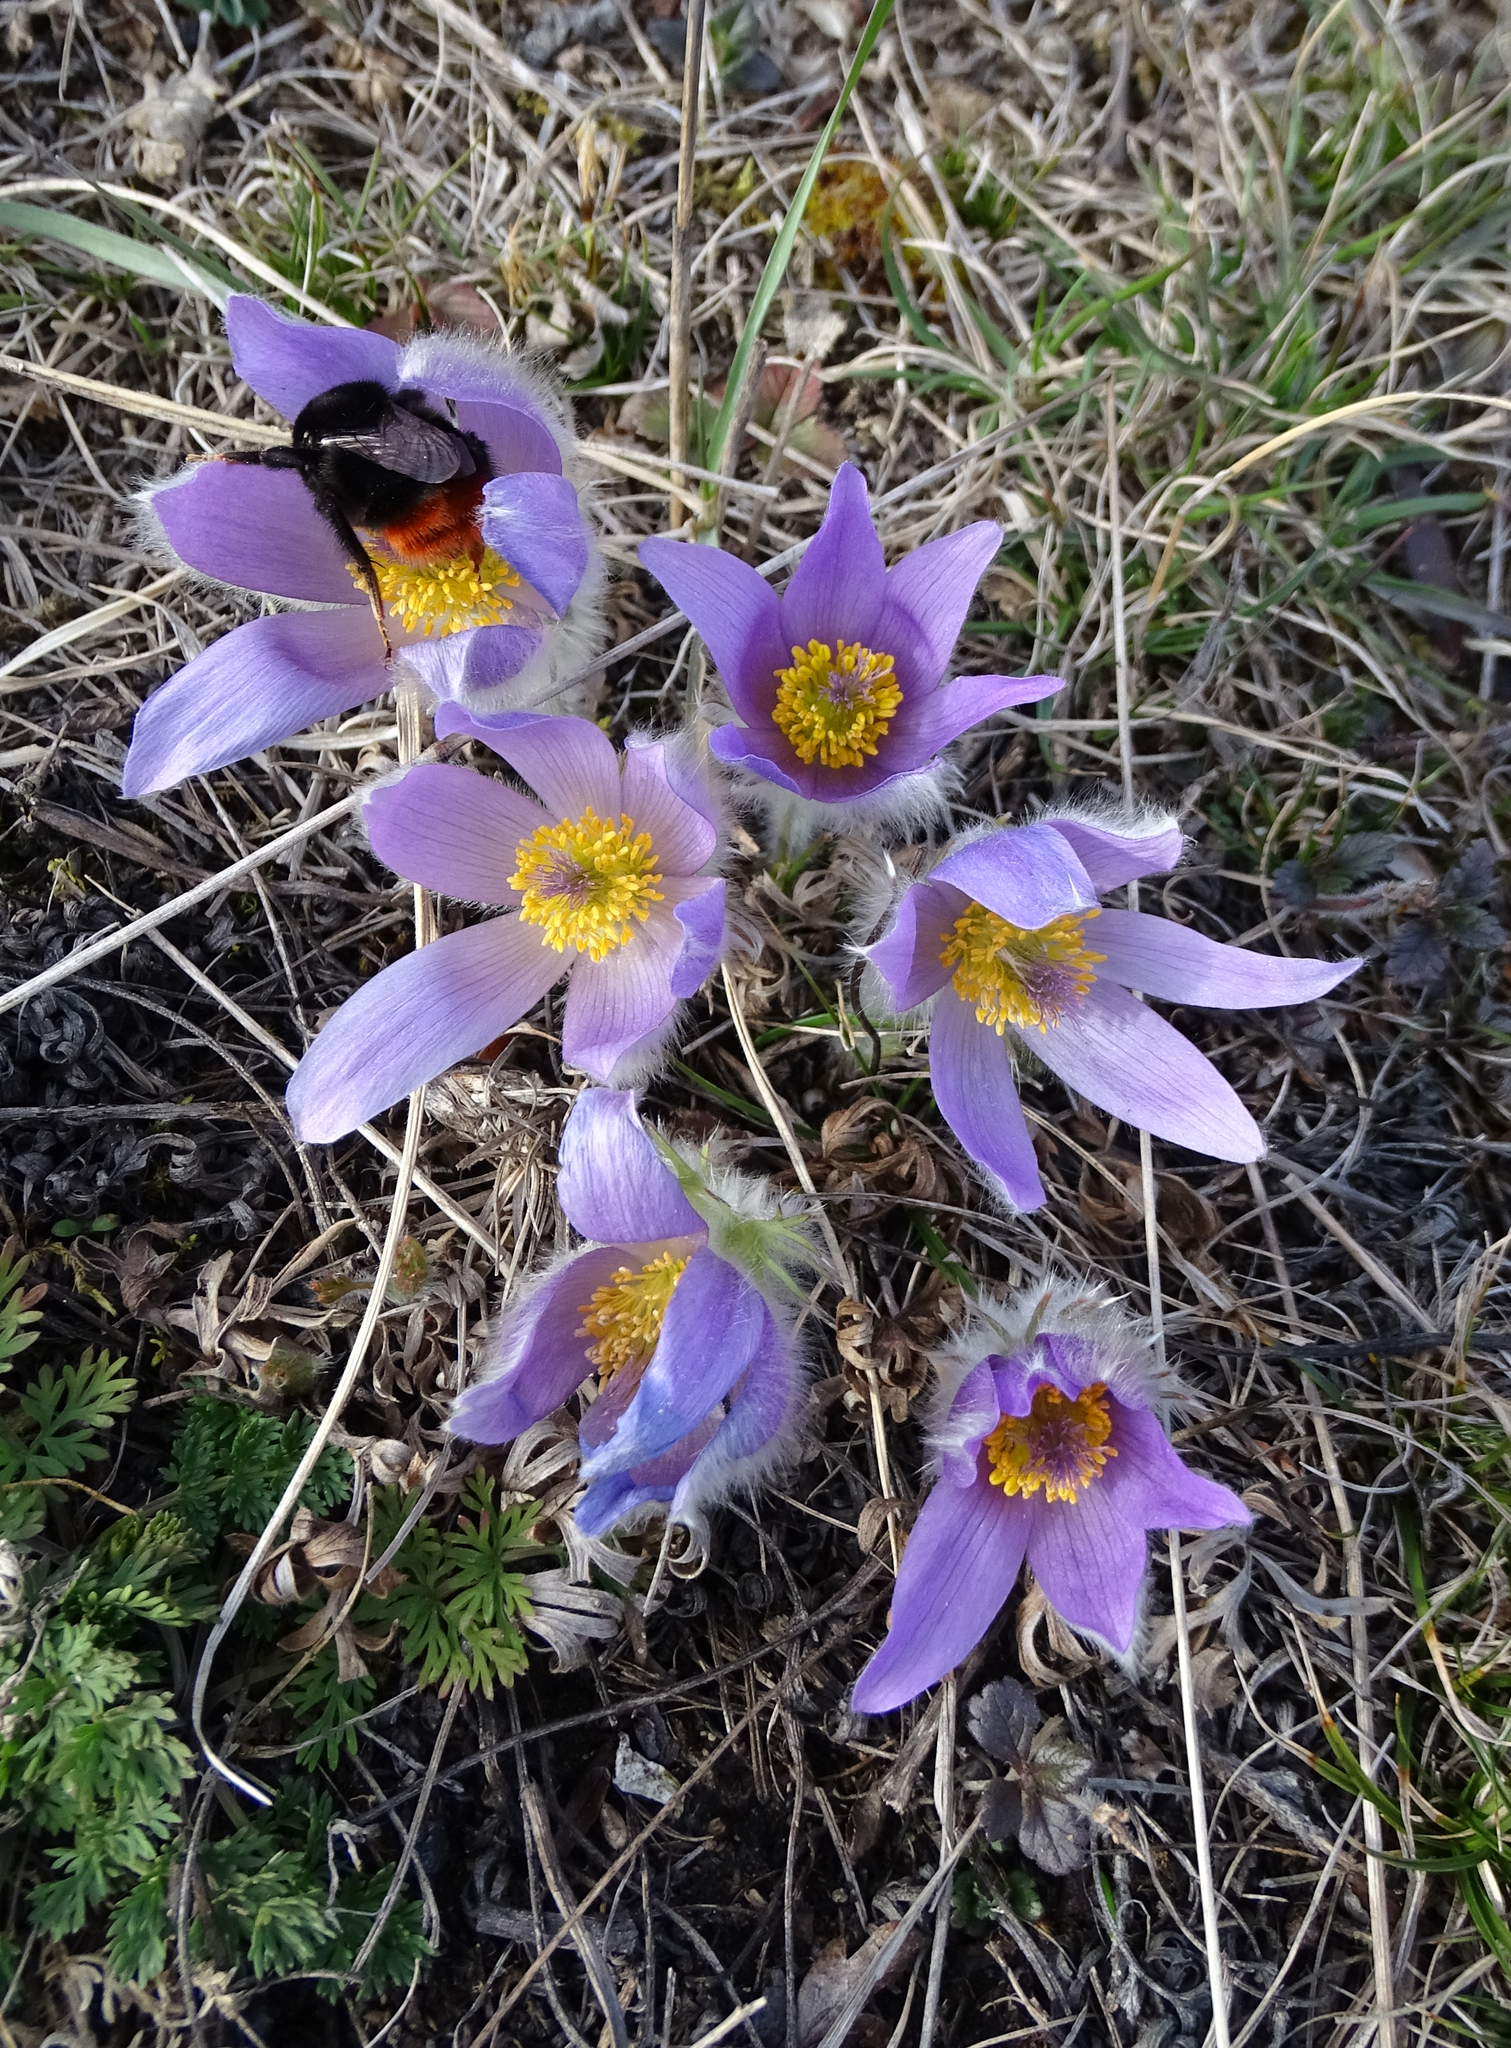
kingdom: Plantae
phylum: Tracheophyta
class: Magnoliopsida
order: Ranunculales
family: Ranunculaceae
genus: Pulsatilla
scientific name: Pulsatilla grandis
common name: Greater pasque flower
